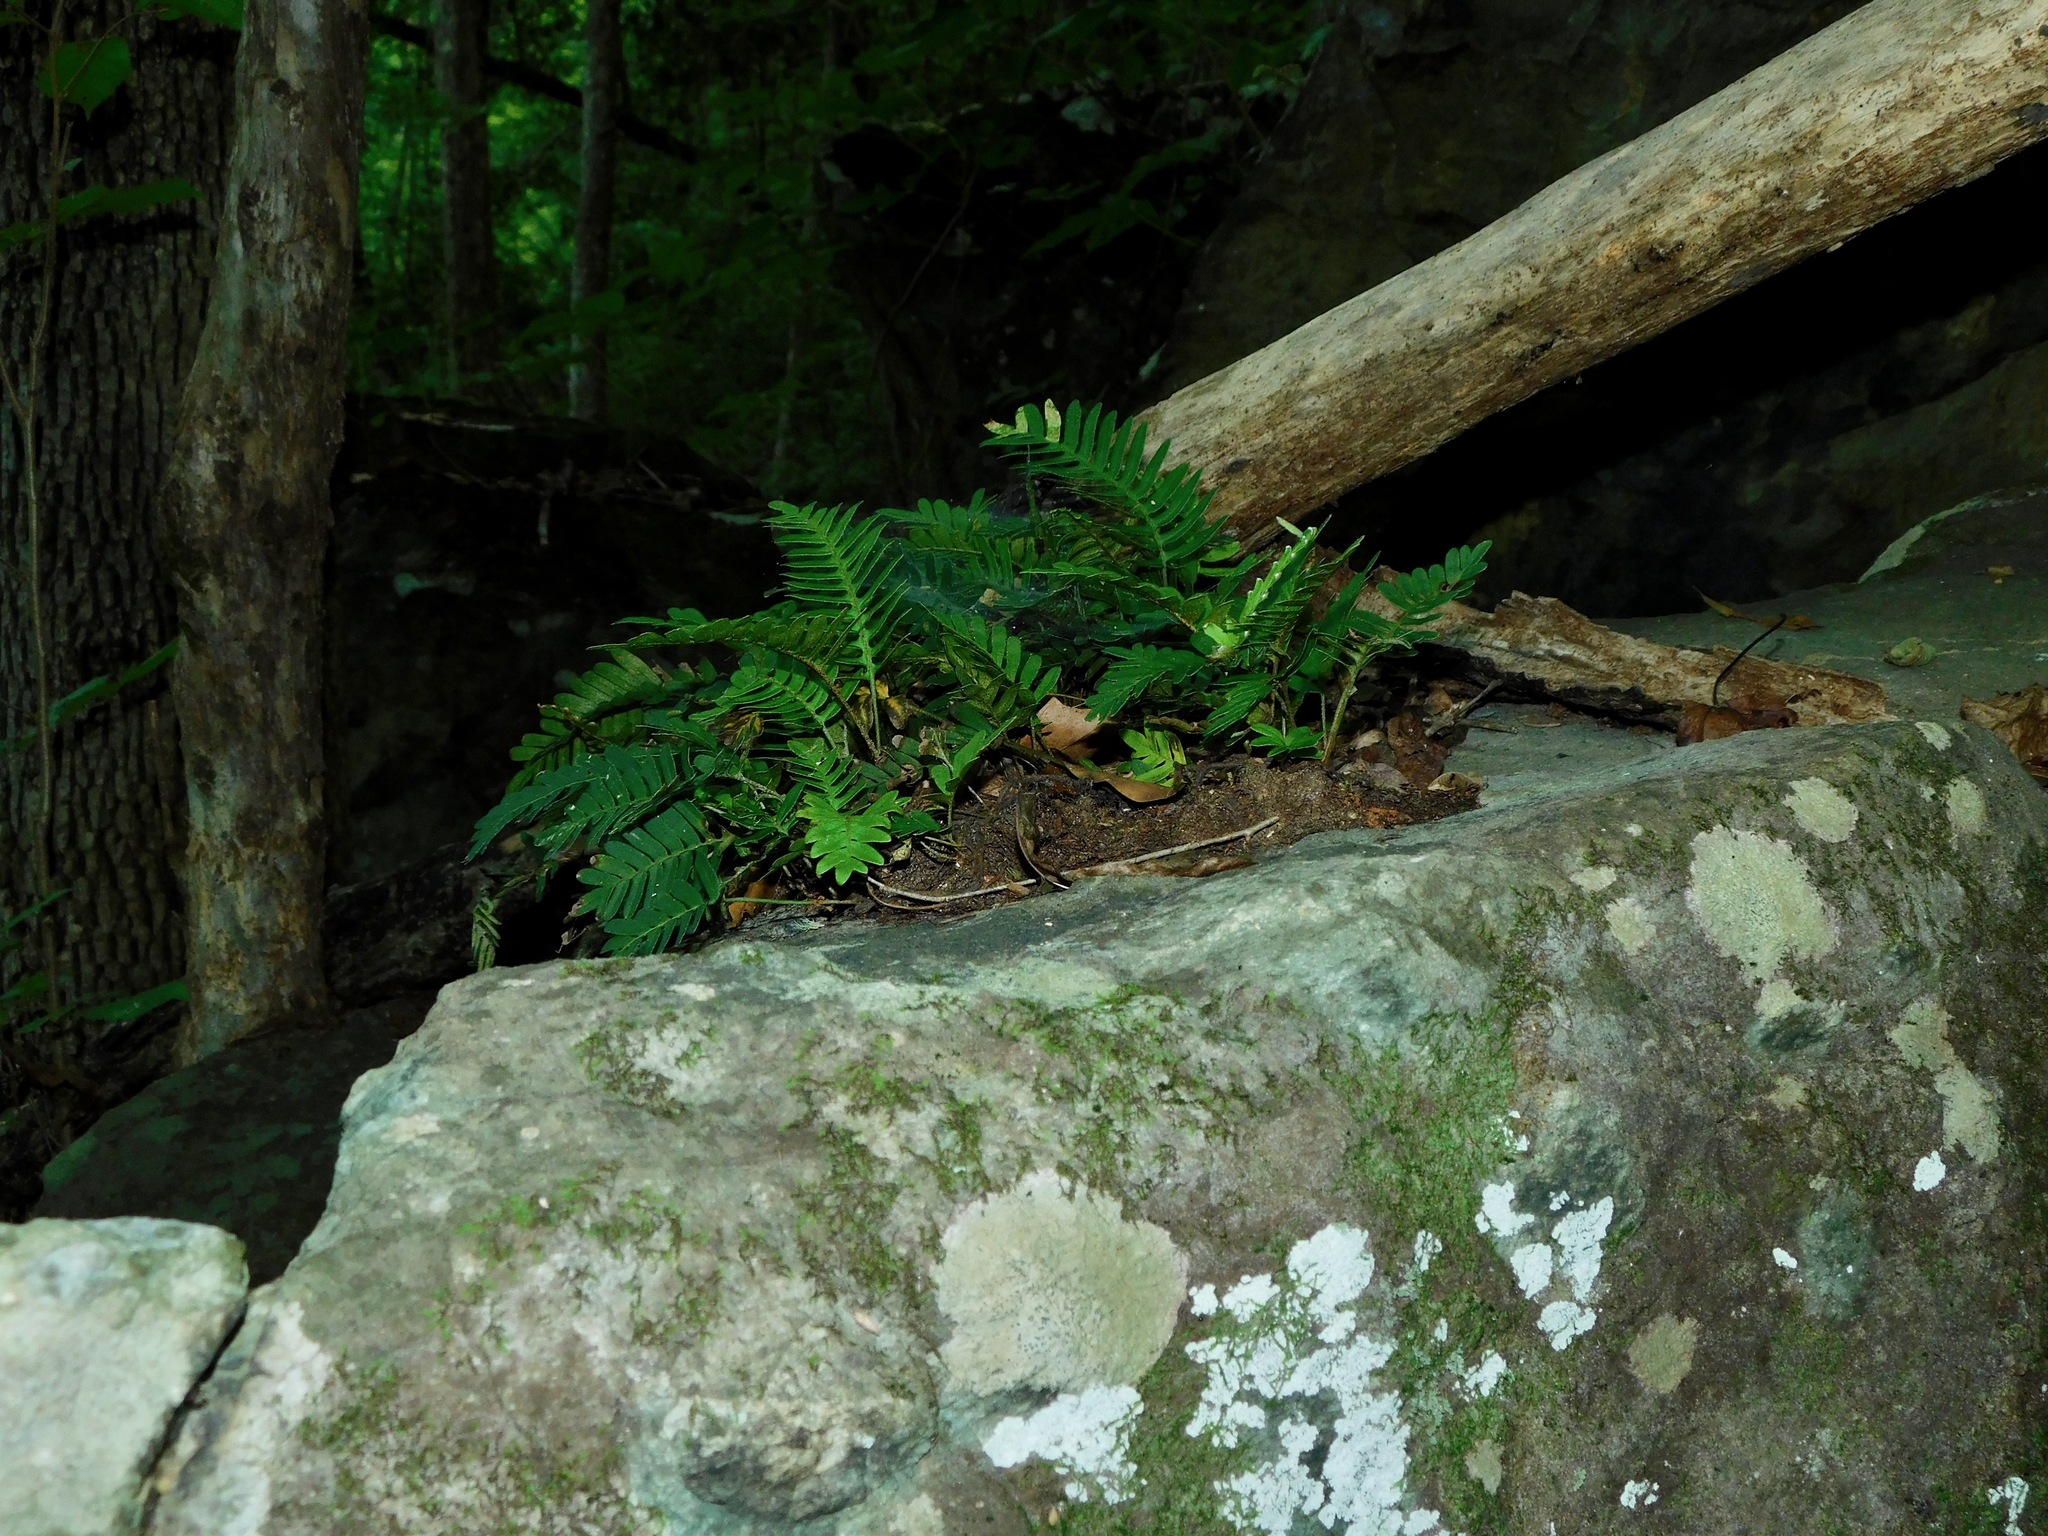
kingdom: Plantae
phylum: Tracheophyta
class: Polypodiopsida
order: Polypodiales
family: Polypodiaceae
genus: Pleopeltis
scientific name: Pleopeltis michauxiana
